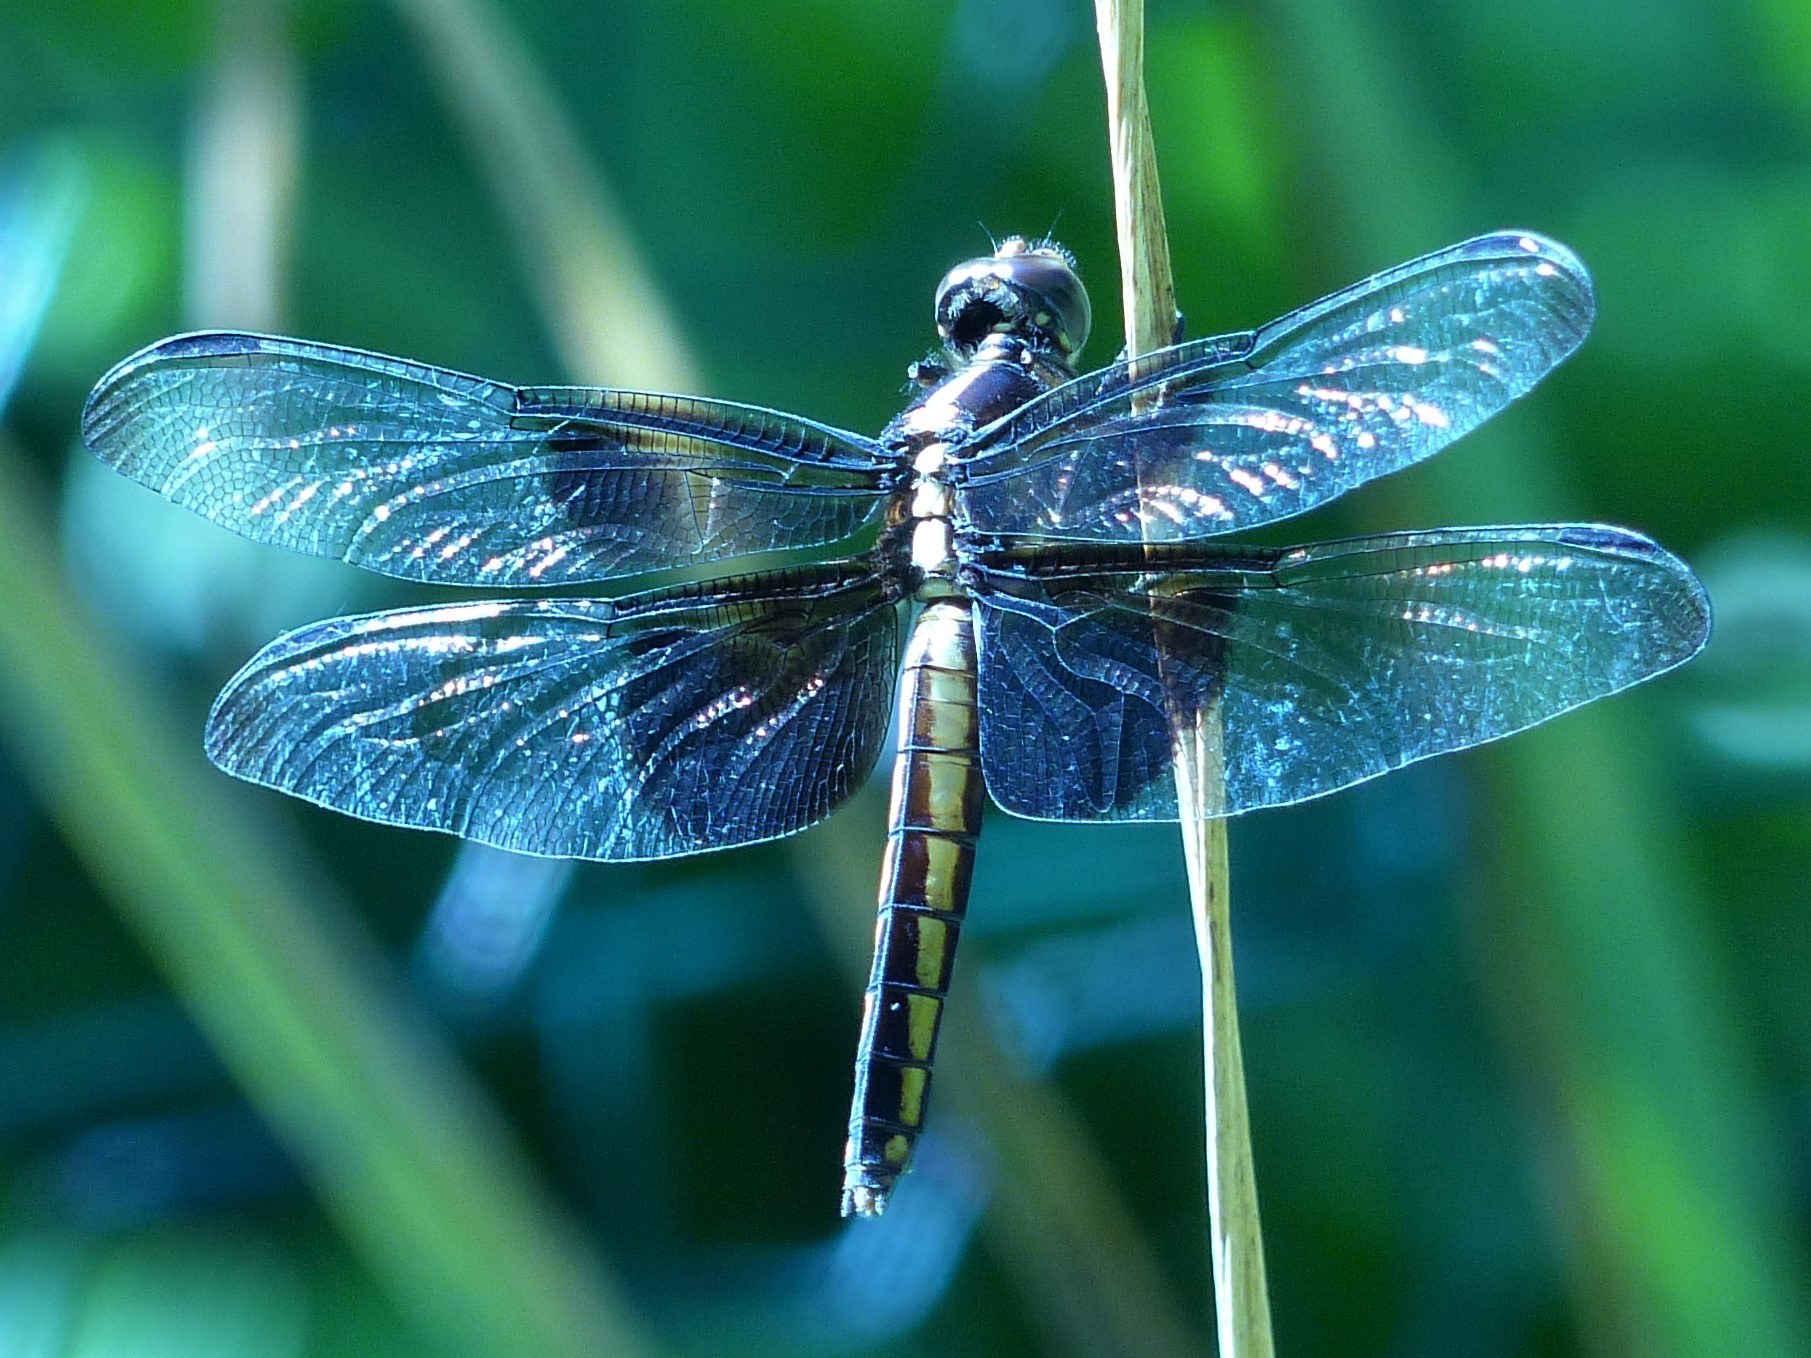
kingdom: Animalia
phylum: Arthropoda
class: Insecta
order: Odonata
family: Libellulidae
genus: Libellula
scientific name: Libellula luctuosa
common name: Widow skimmer
